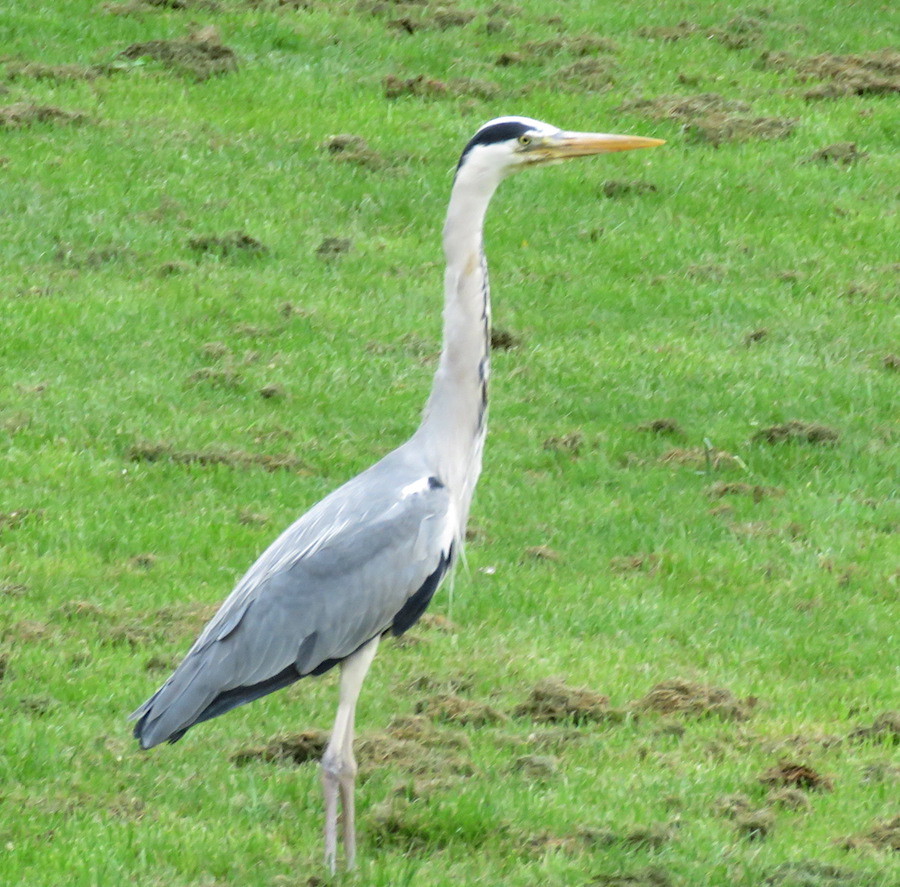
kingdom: Animalia
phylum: Chordata
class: Aves
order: Pelecaniformes
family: Ardeidae
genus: Ardea
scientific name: Ardea cinerea
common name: Grey heron
